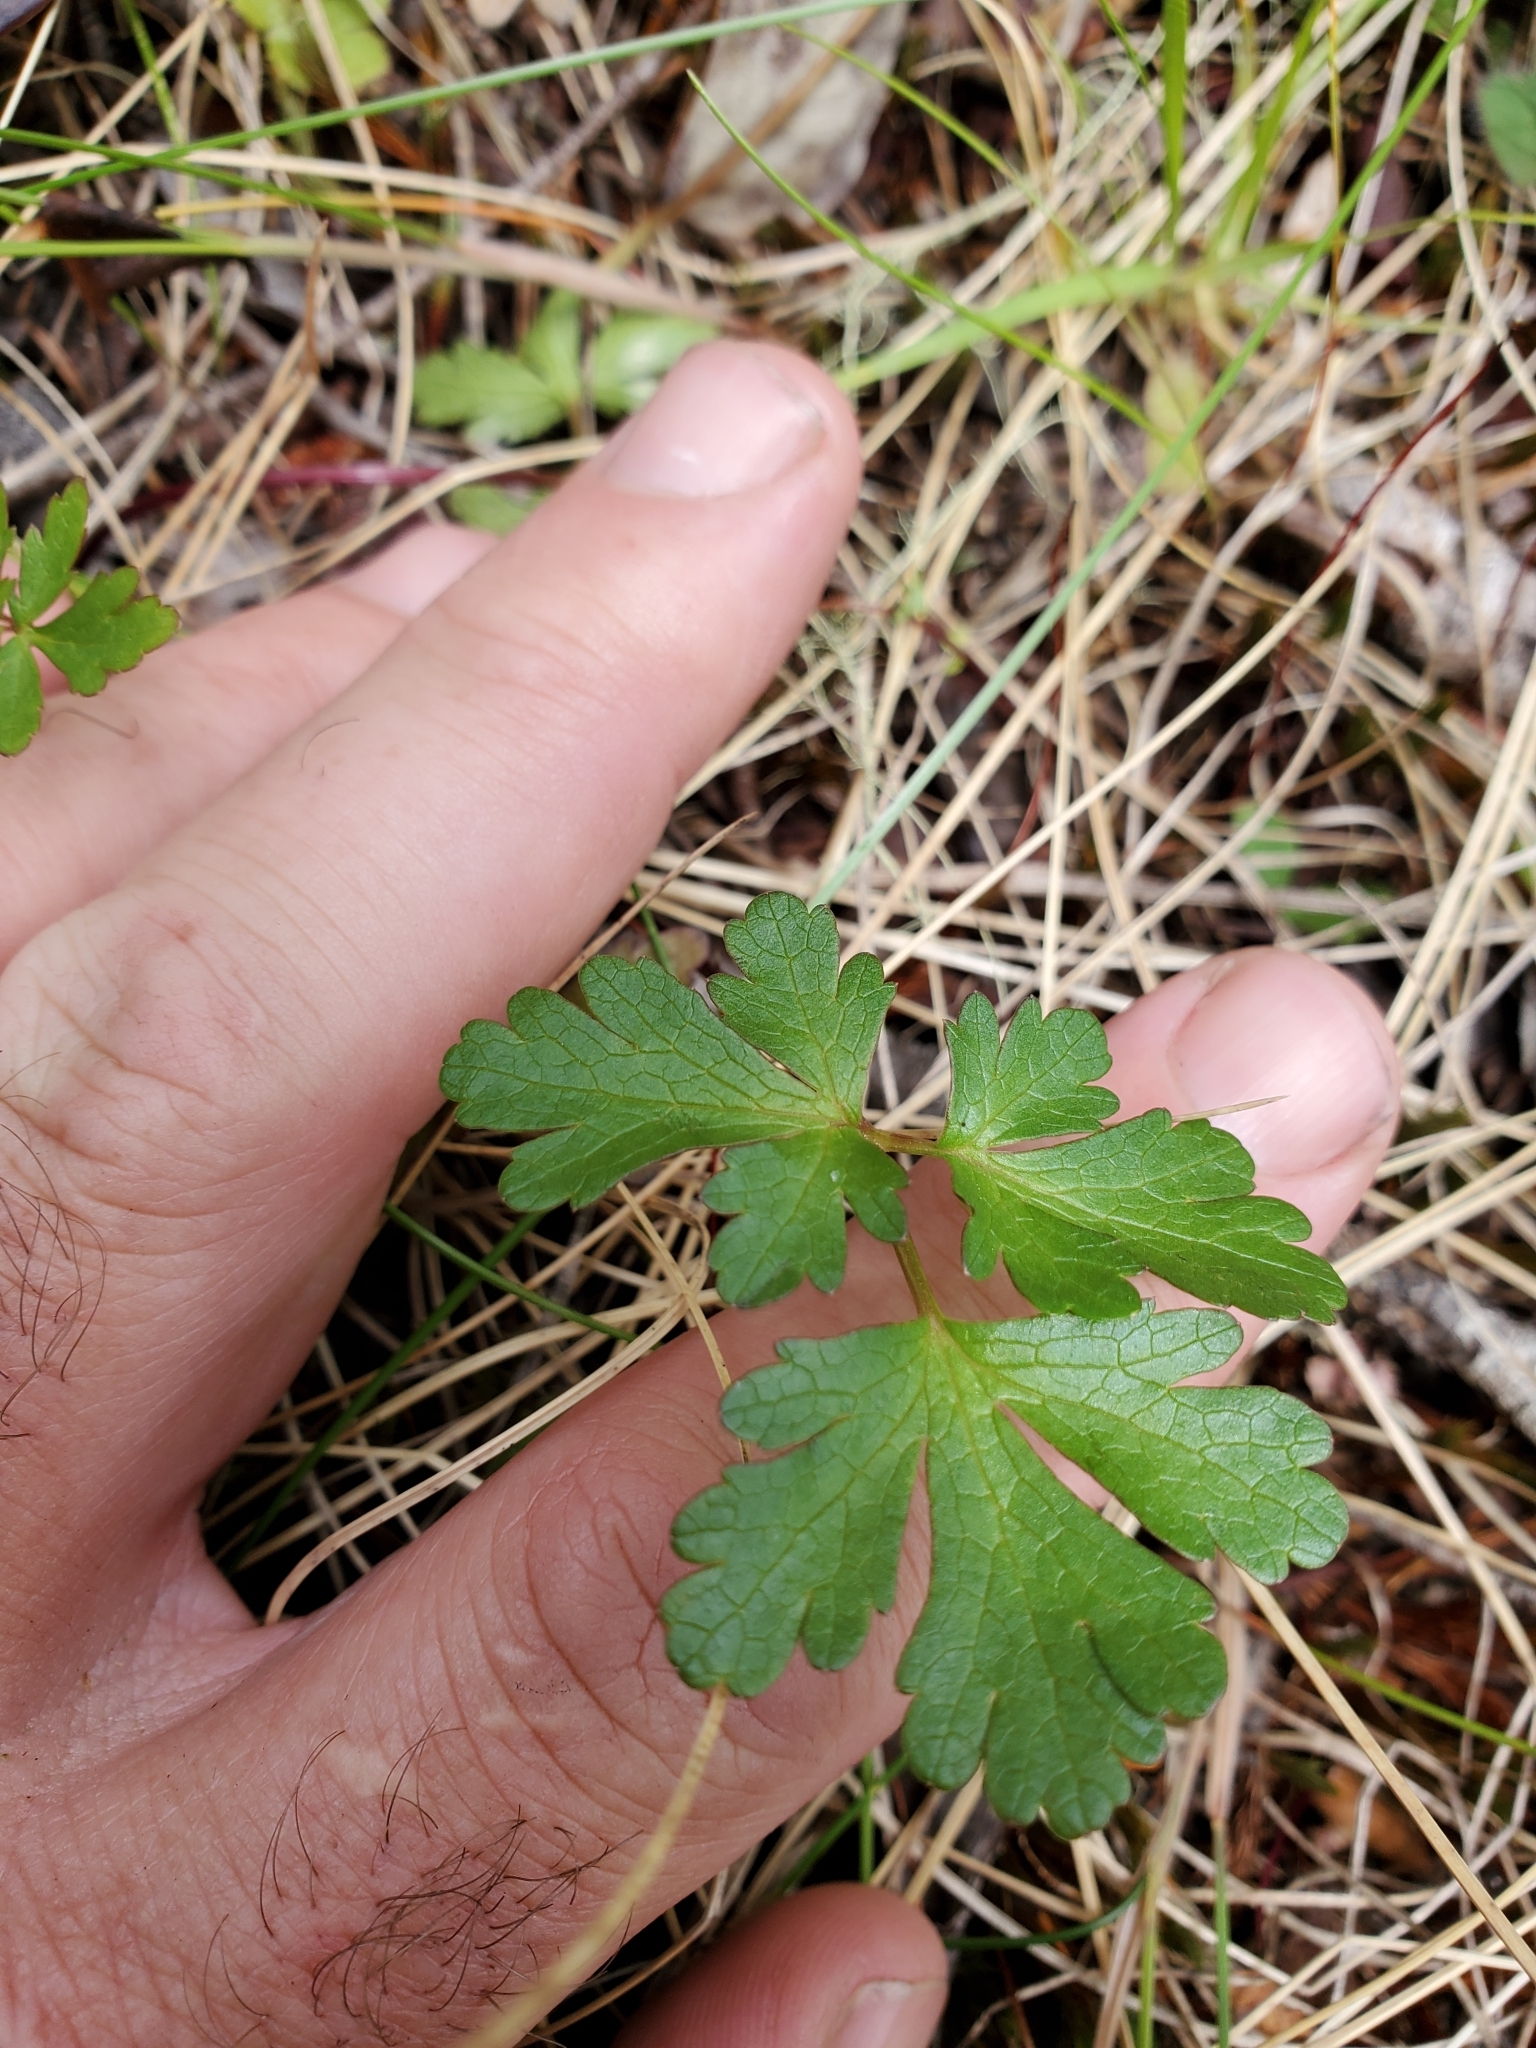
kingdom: Plantae
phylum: Tracheophyta
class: Magnoliopsida
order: Apiales
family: Apiaceae
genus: Sanicula
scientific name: Sanicula graveolens
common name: Sierra sanicle
